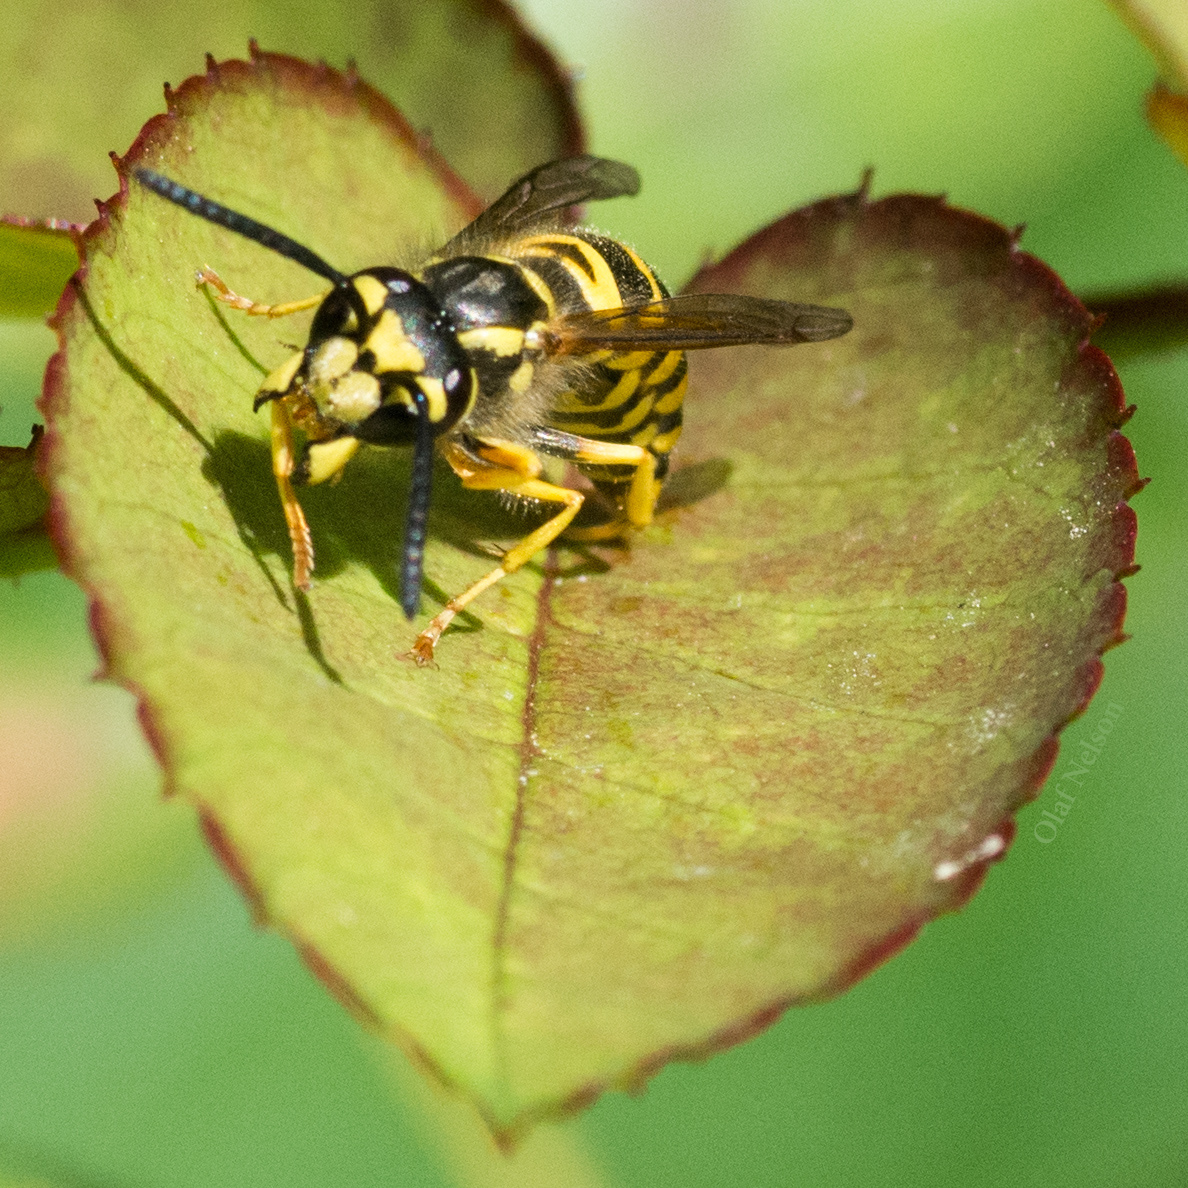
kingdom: Animalia
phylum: Arthropoda
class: Insecta
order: Hymenoptera
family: Vespidae
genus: Vespula
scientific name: Vespula maculifrons
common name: Eastern yellowjacket
